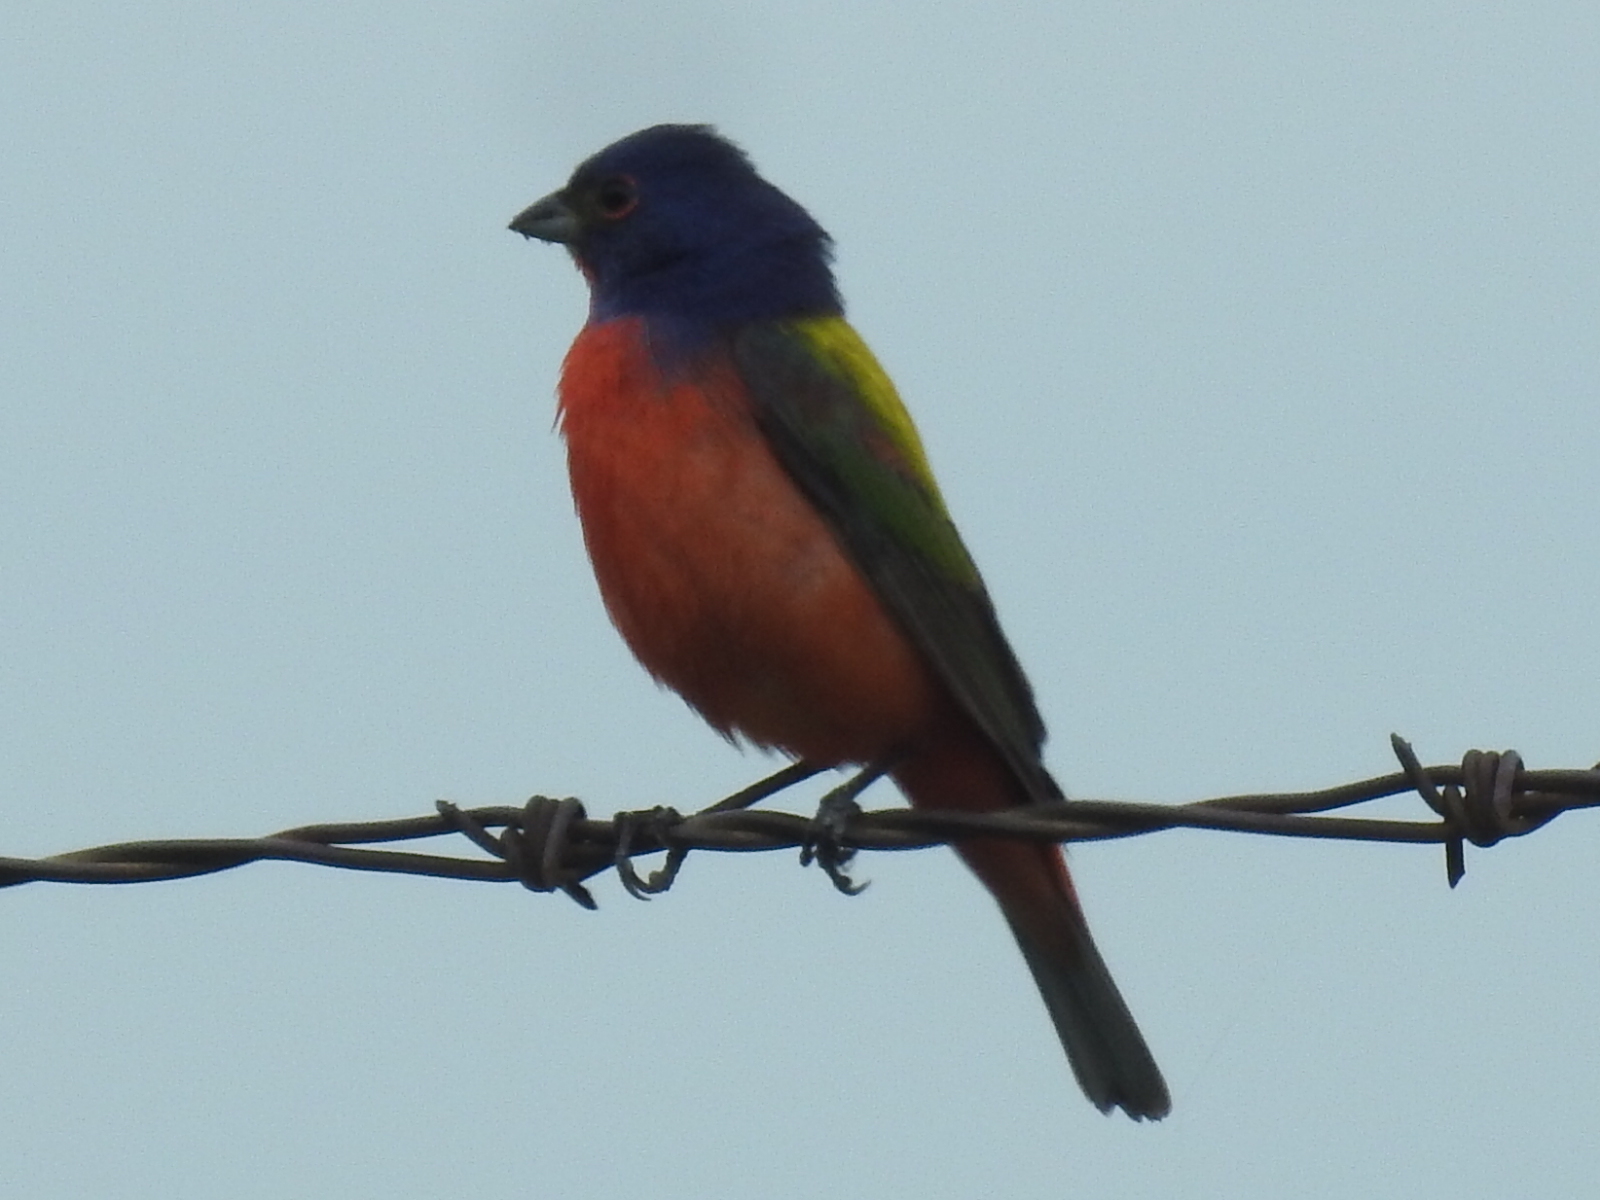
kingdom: Animalia
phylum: Chordata
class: Aves
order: Passeriformes
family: Cardinalidae
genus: Passerina
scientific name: Passerina ciris
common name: Painted bunting
